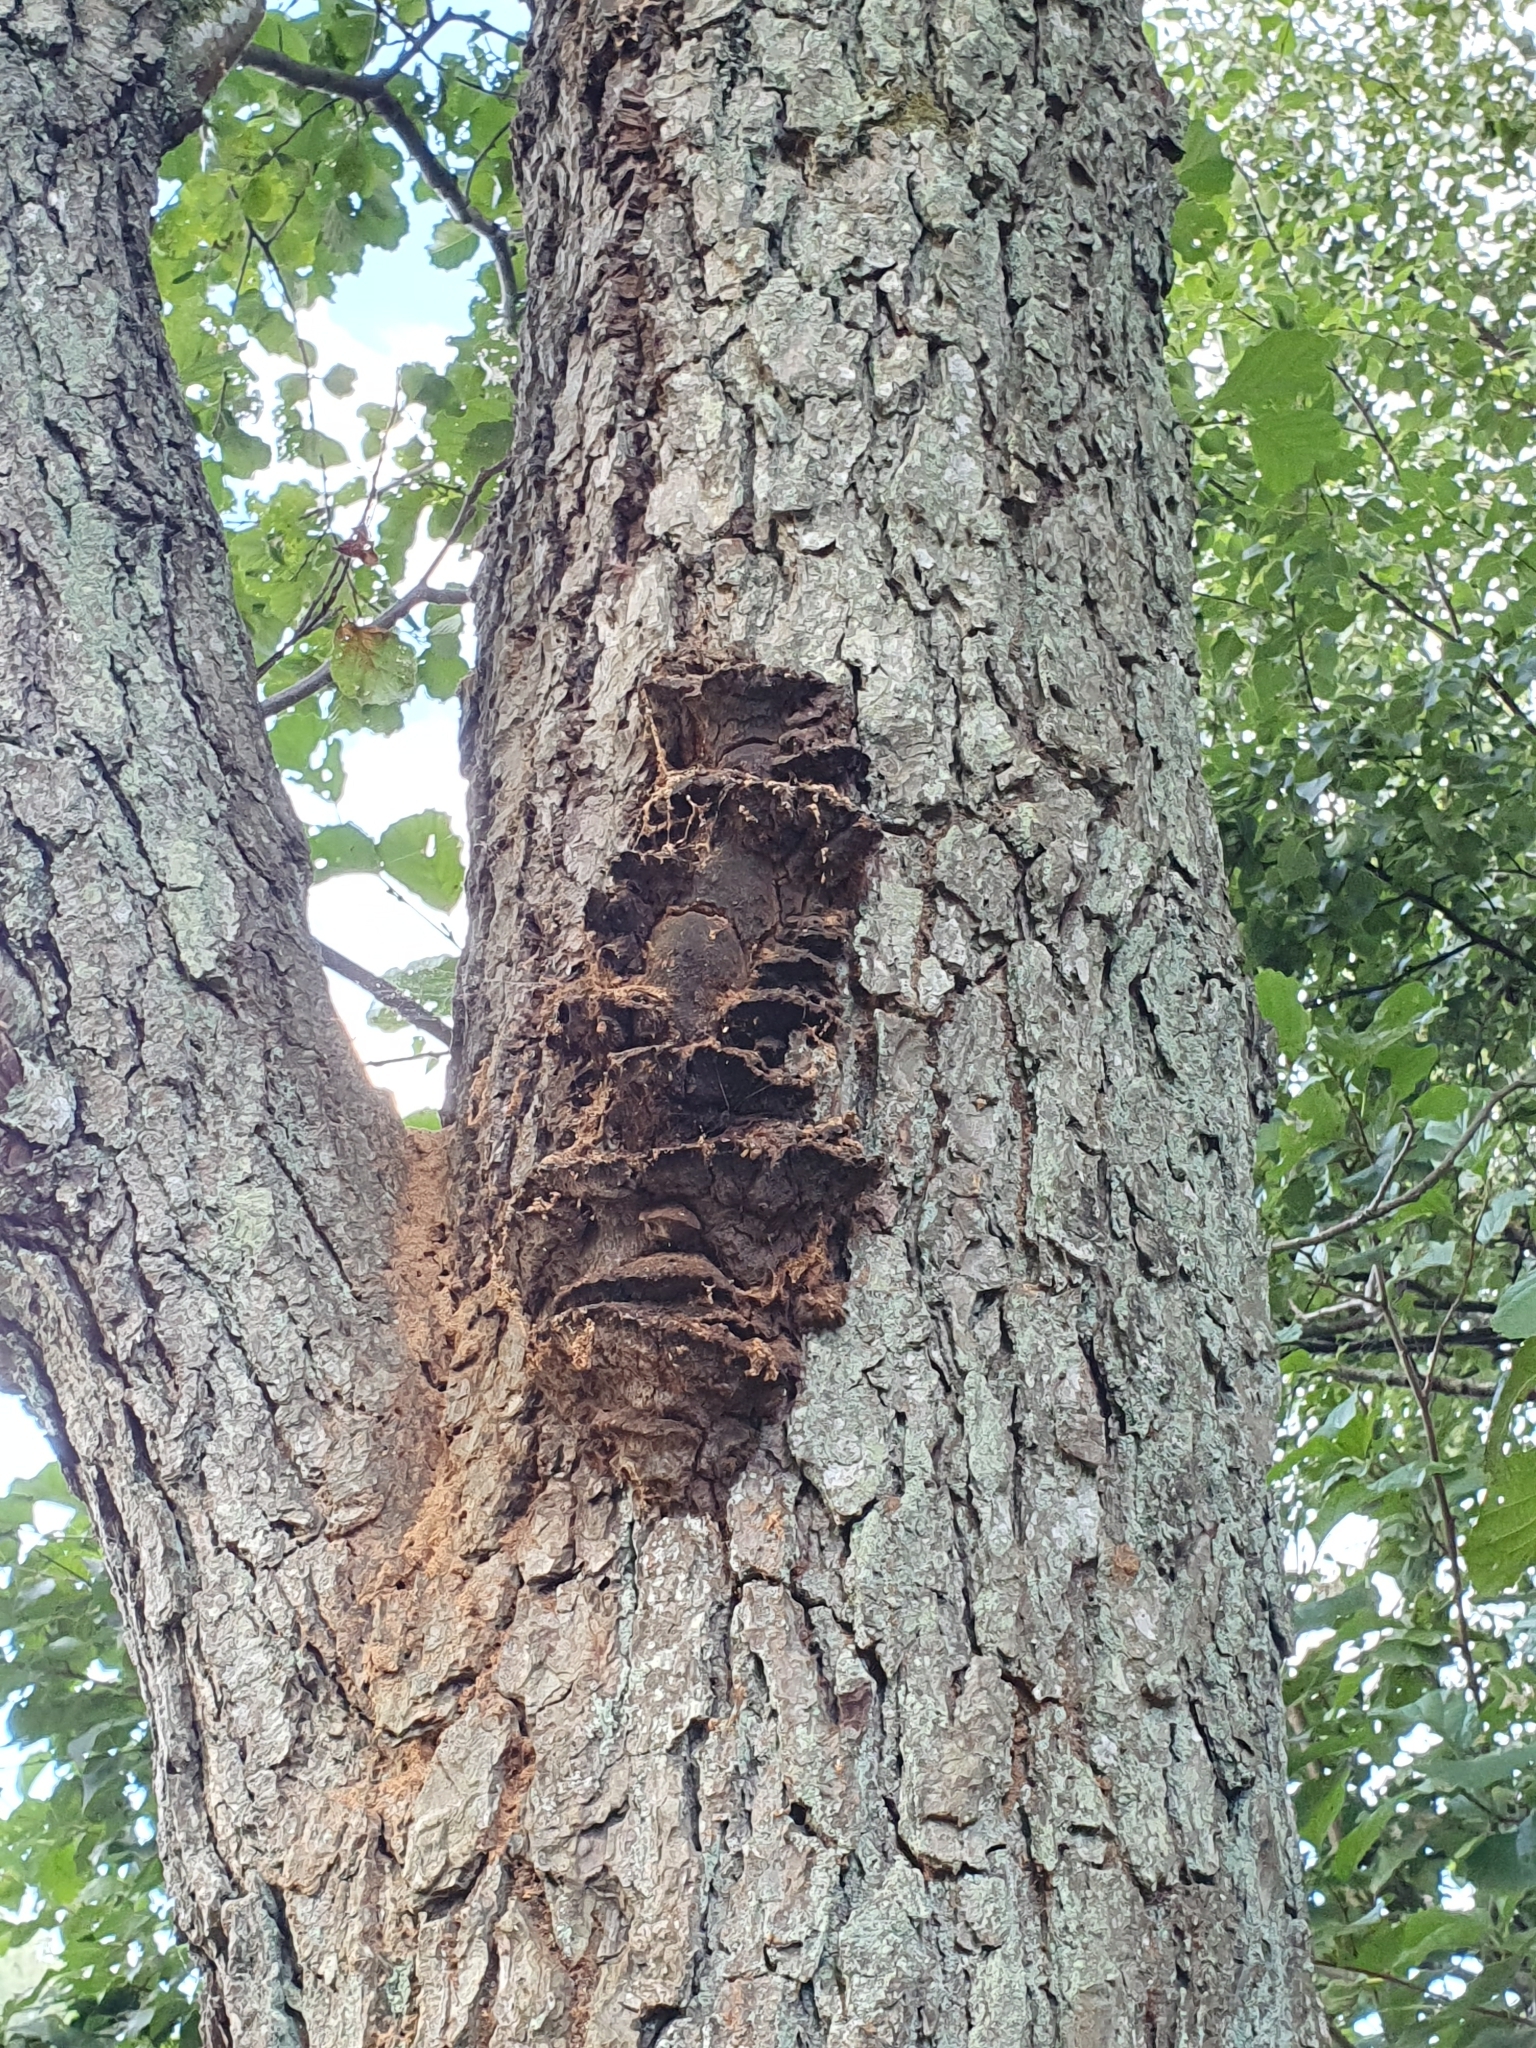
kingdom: Fungi
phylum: Basidiomycota
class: Agaricomycetes
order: Hymenochaetales
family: Hymenochaetaceae
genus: Xanthoporia
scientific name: Xanthoporia radiata
